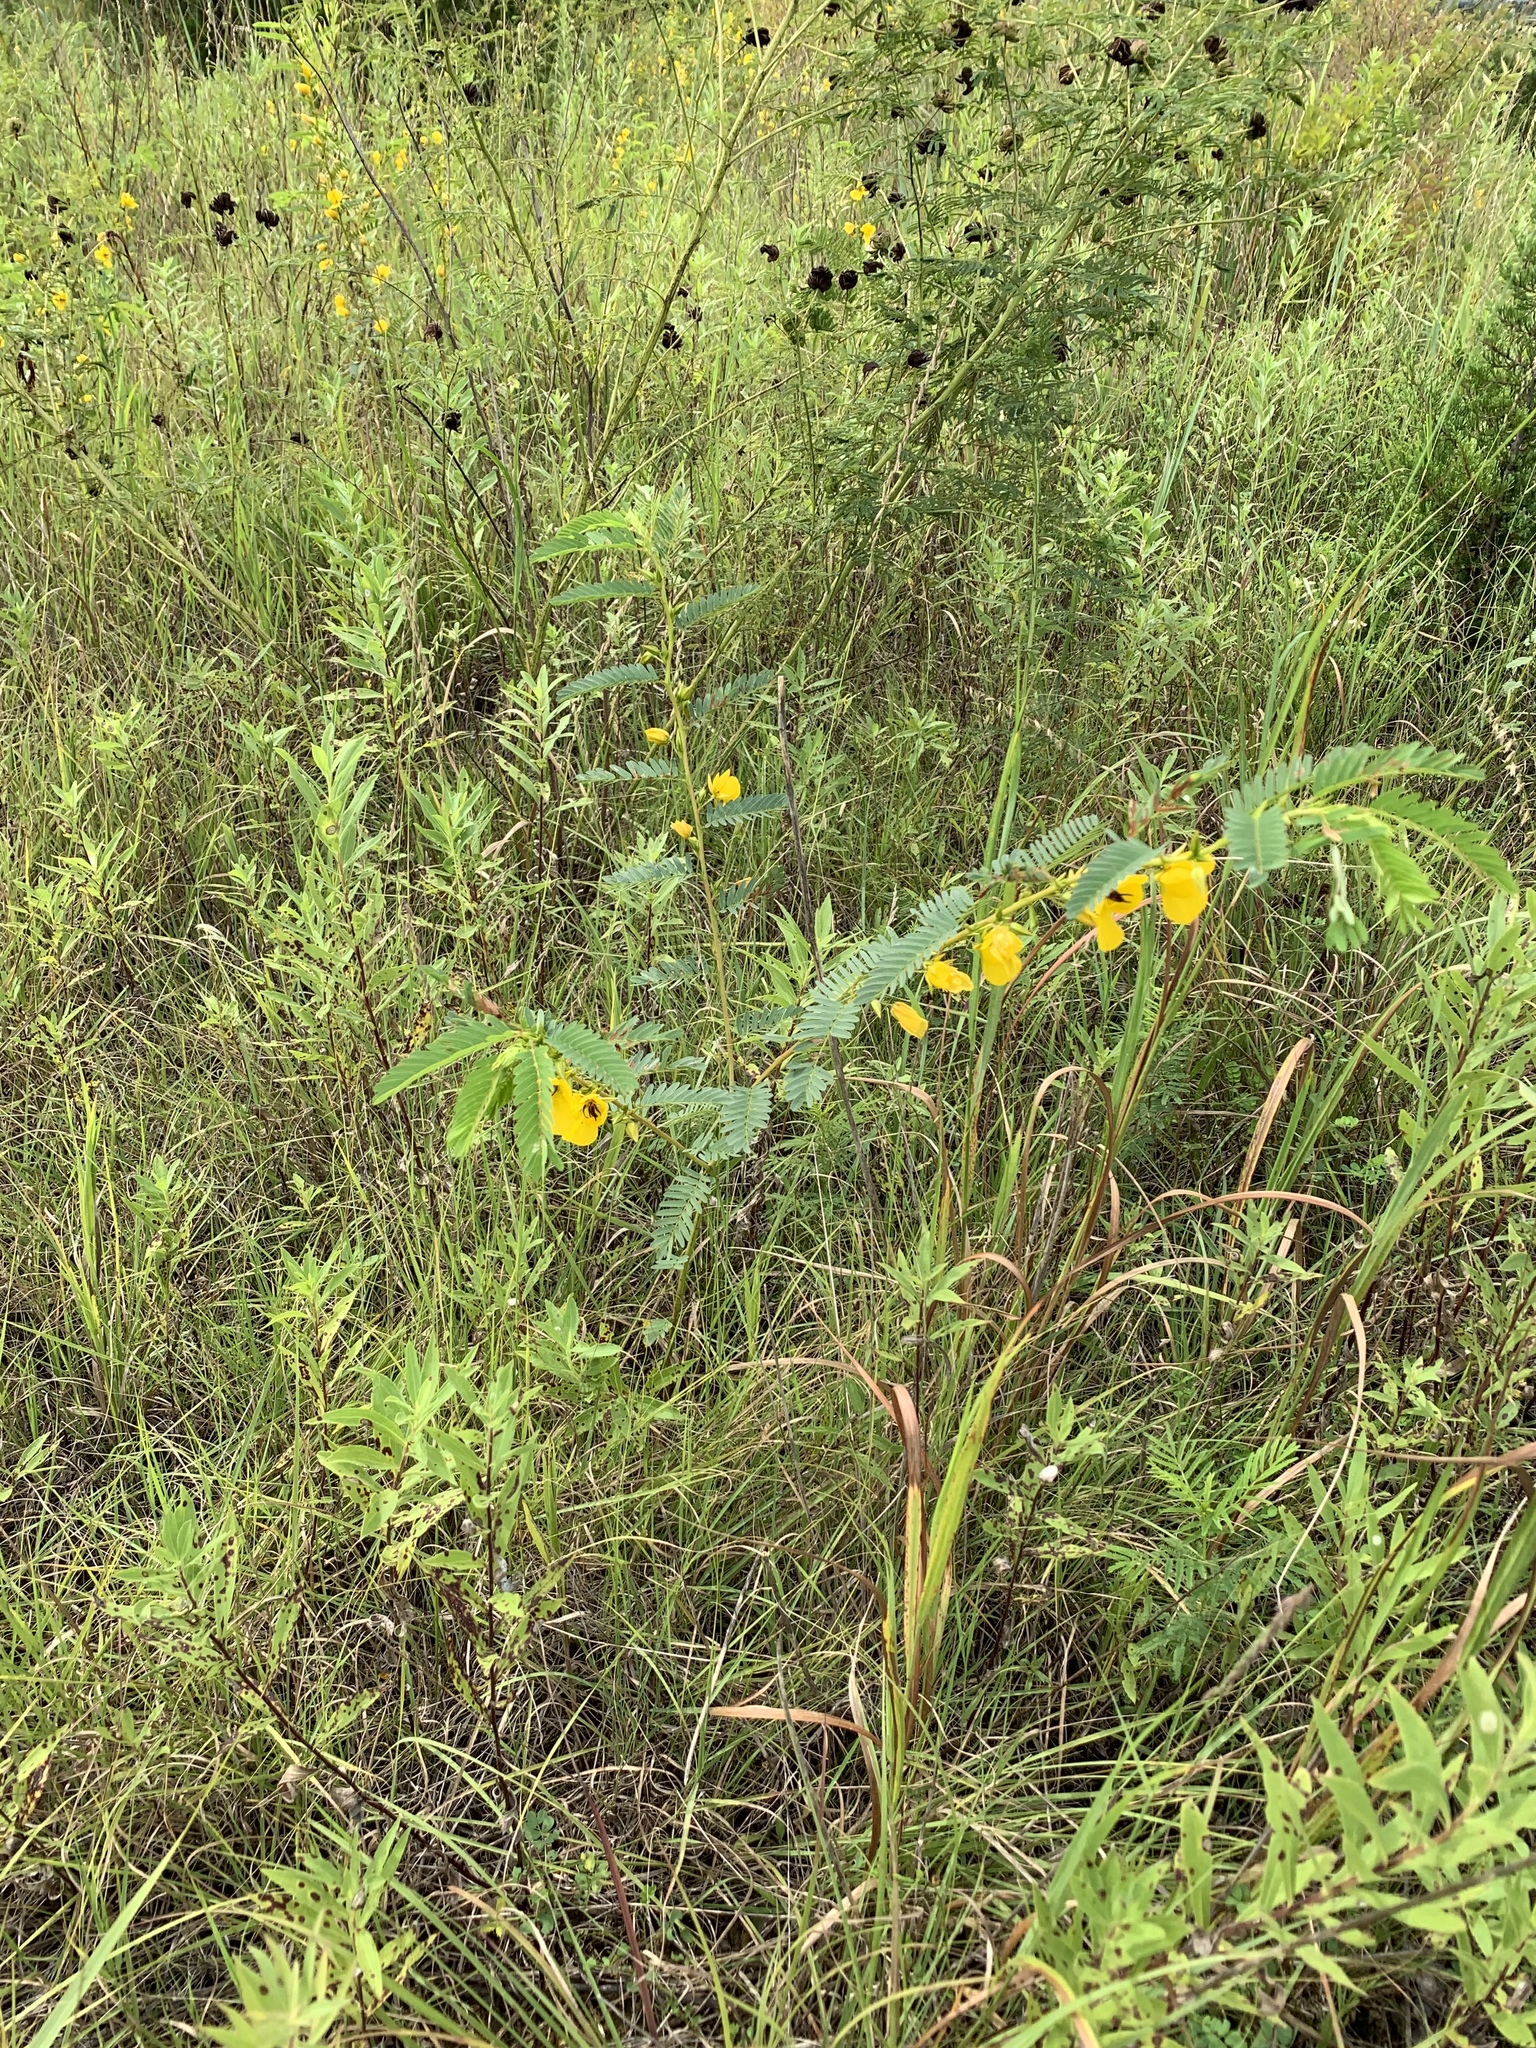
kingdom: Plantae
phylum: Tracheophyta
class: Magnoliopsida
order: Fabales
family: Fabaceae
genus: Chamaecrista
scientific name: Chamaecrista fasciculata
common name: Golden cassia
